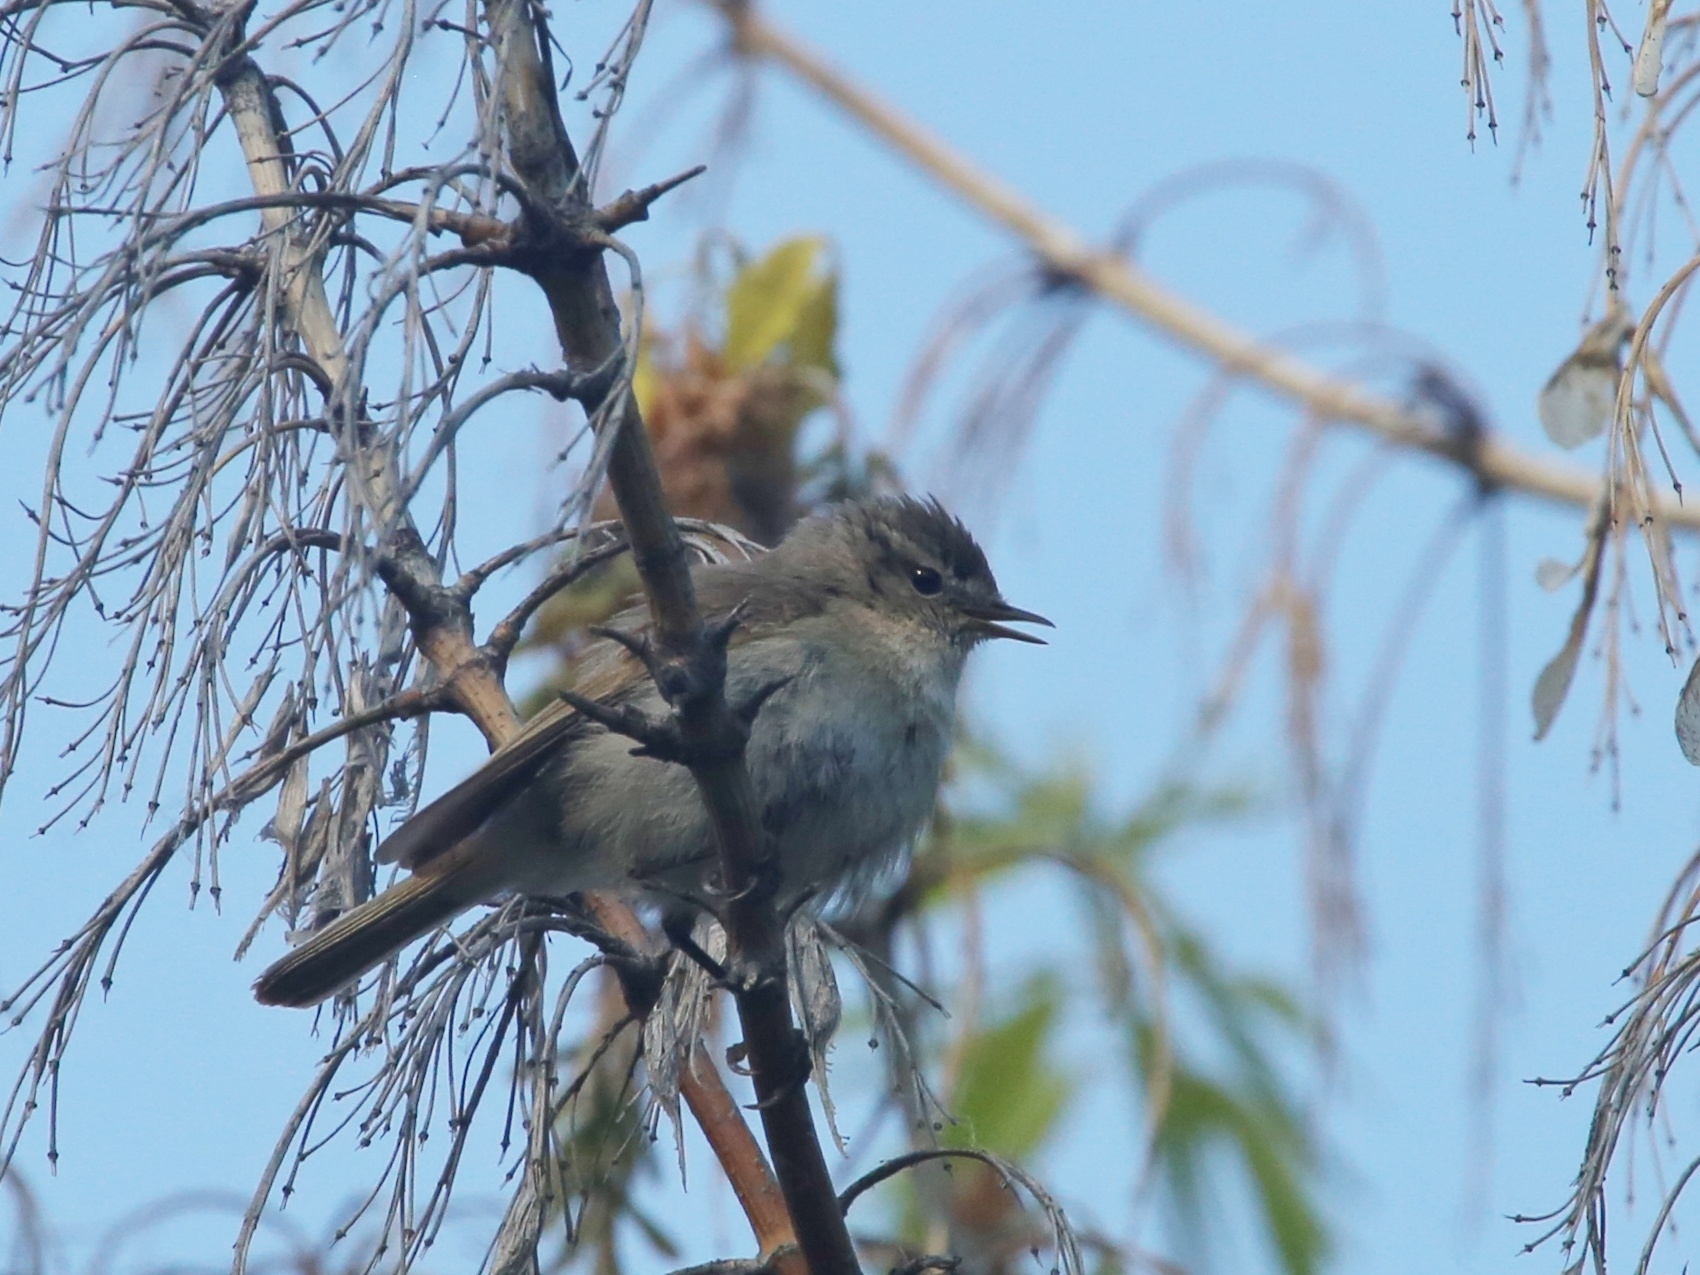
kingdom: Animalia
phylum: Chordata
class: Aves
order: Passeriformes
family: Phylloscopidae
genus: Phylloscopus
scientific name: Phylloscopus collybita
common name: Common chiffchaff
